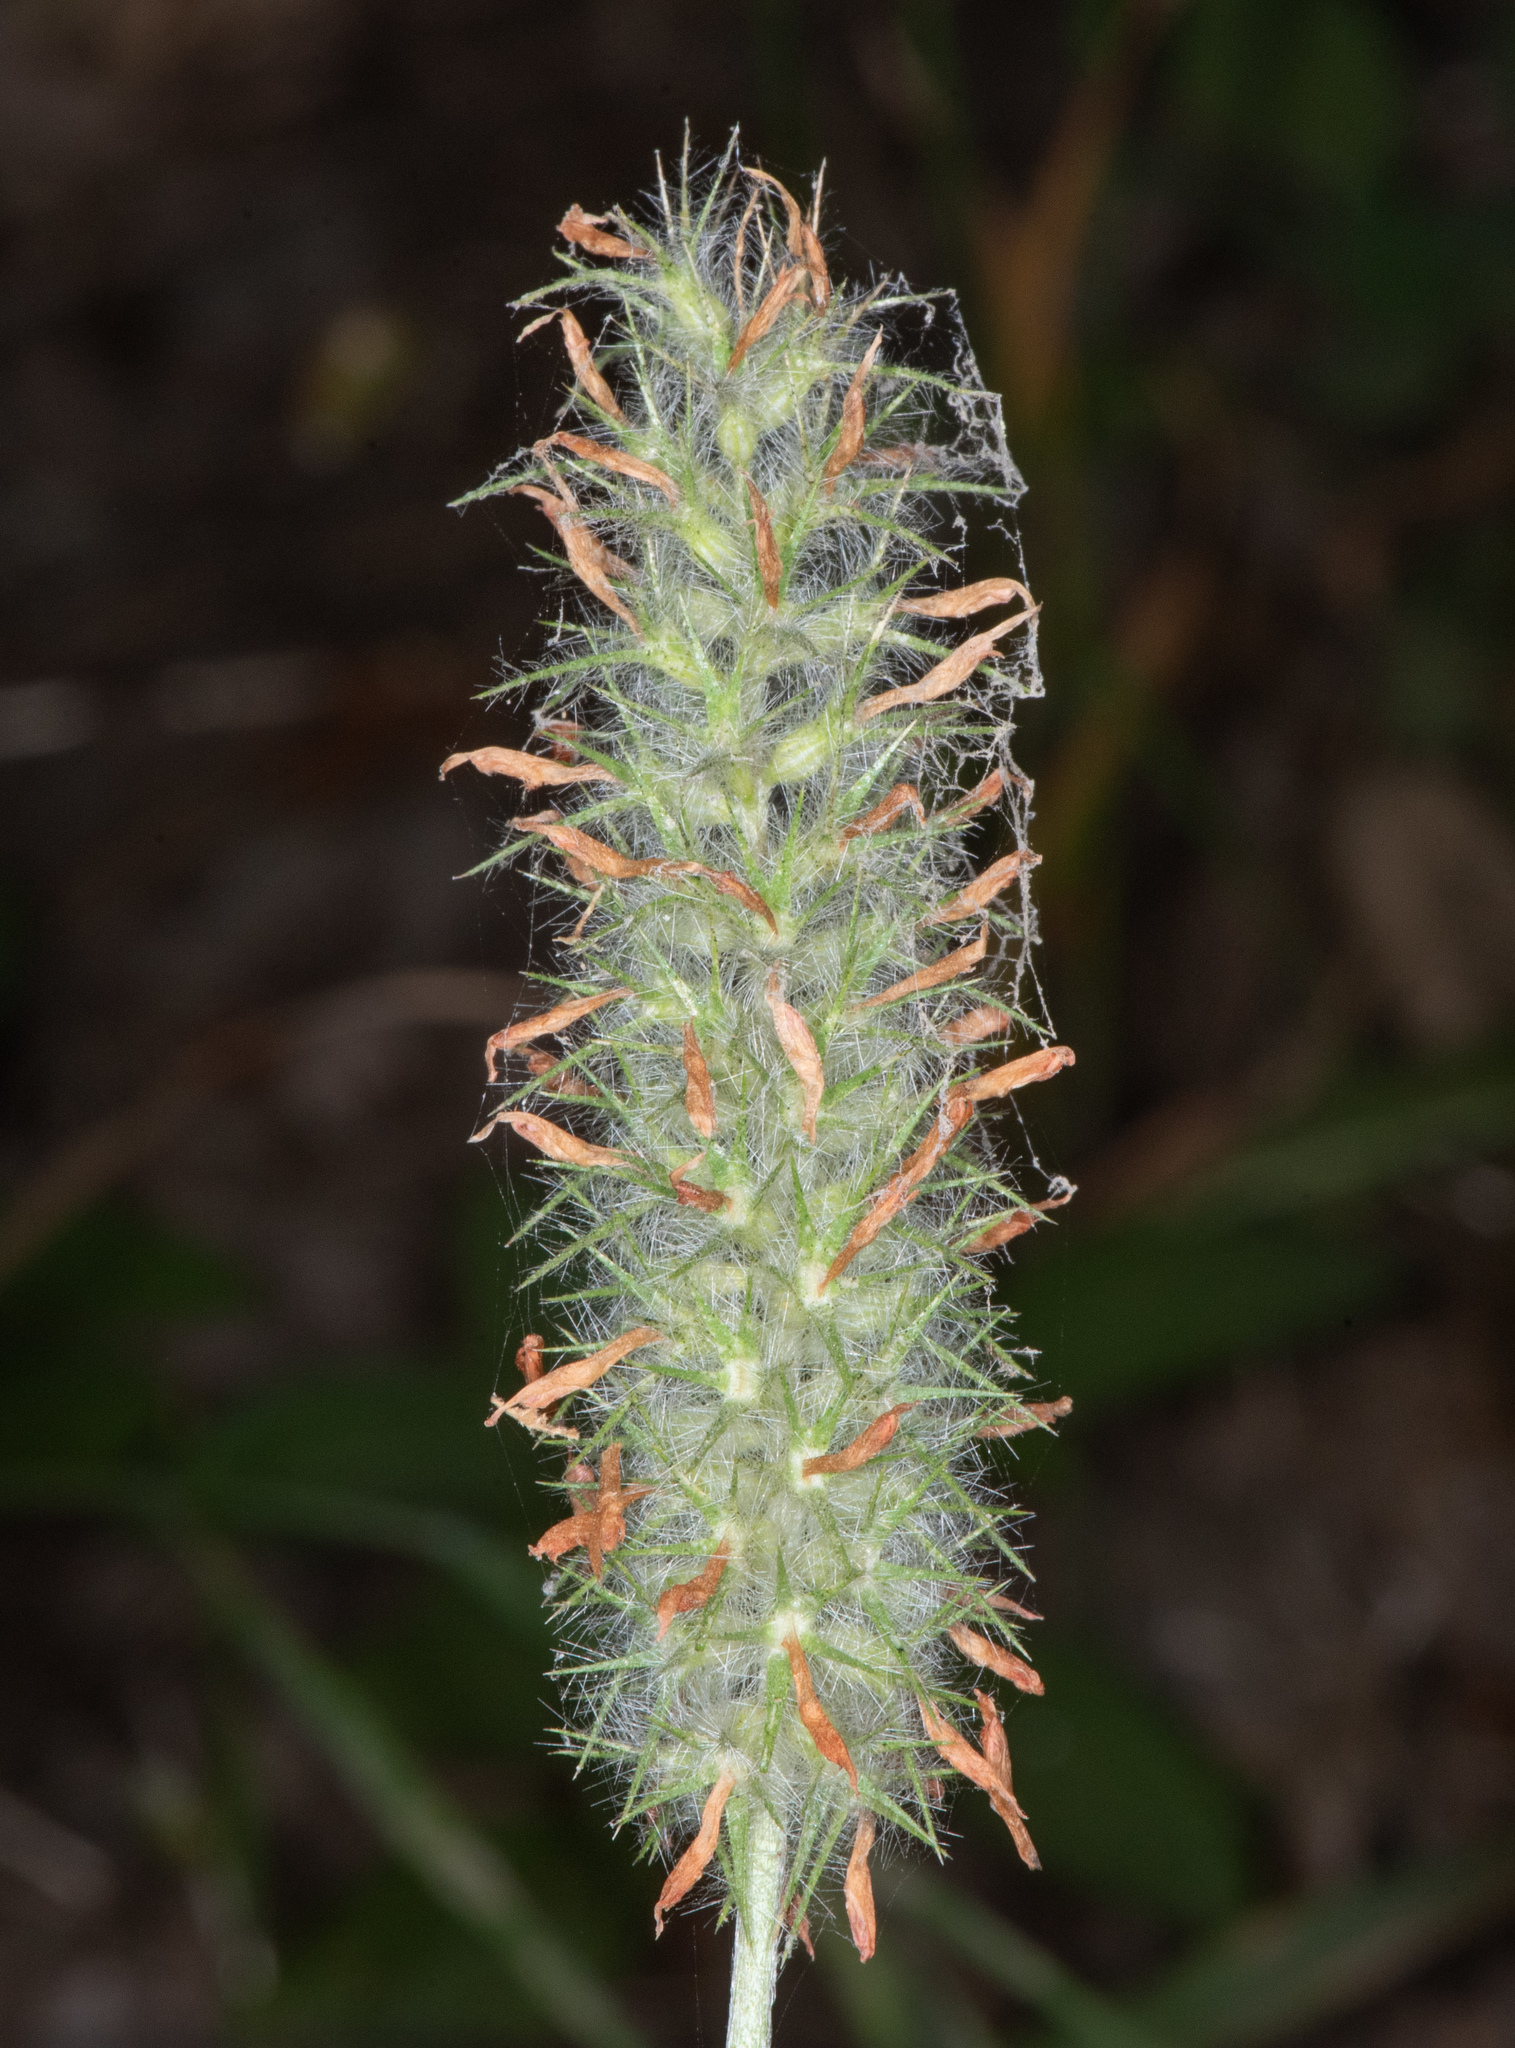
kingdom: Plantae
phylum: Tracheophyta
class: Magnoliopsida
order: Fabales
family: Fabaceae
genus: Trifolium
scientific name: Trifolium angustifolium
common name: Narrow clover
